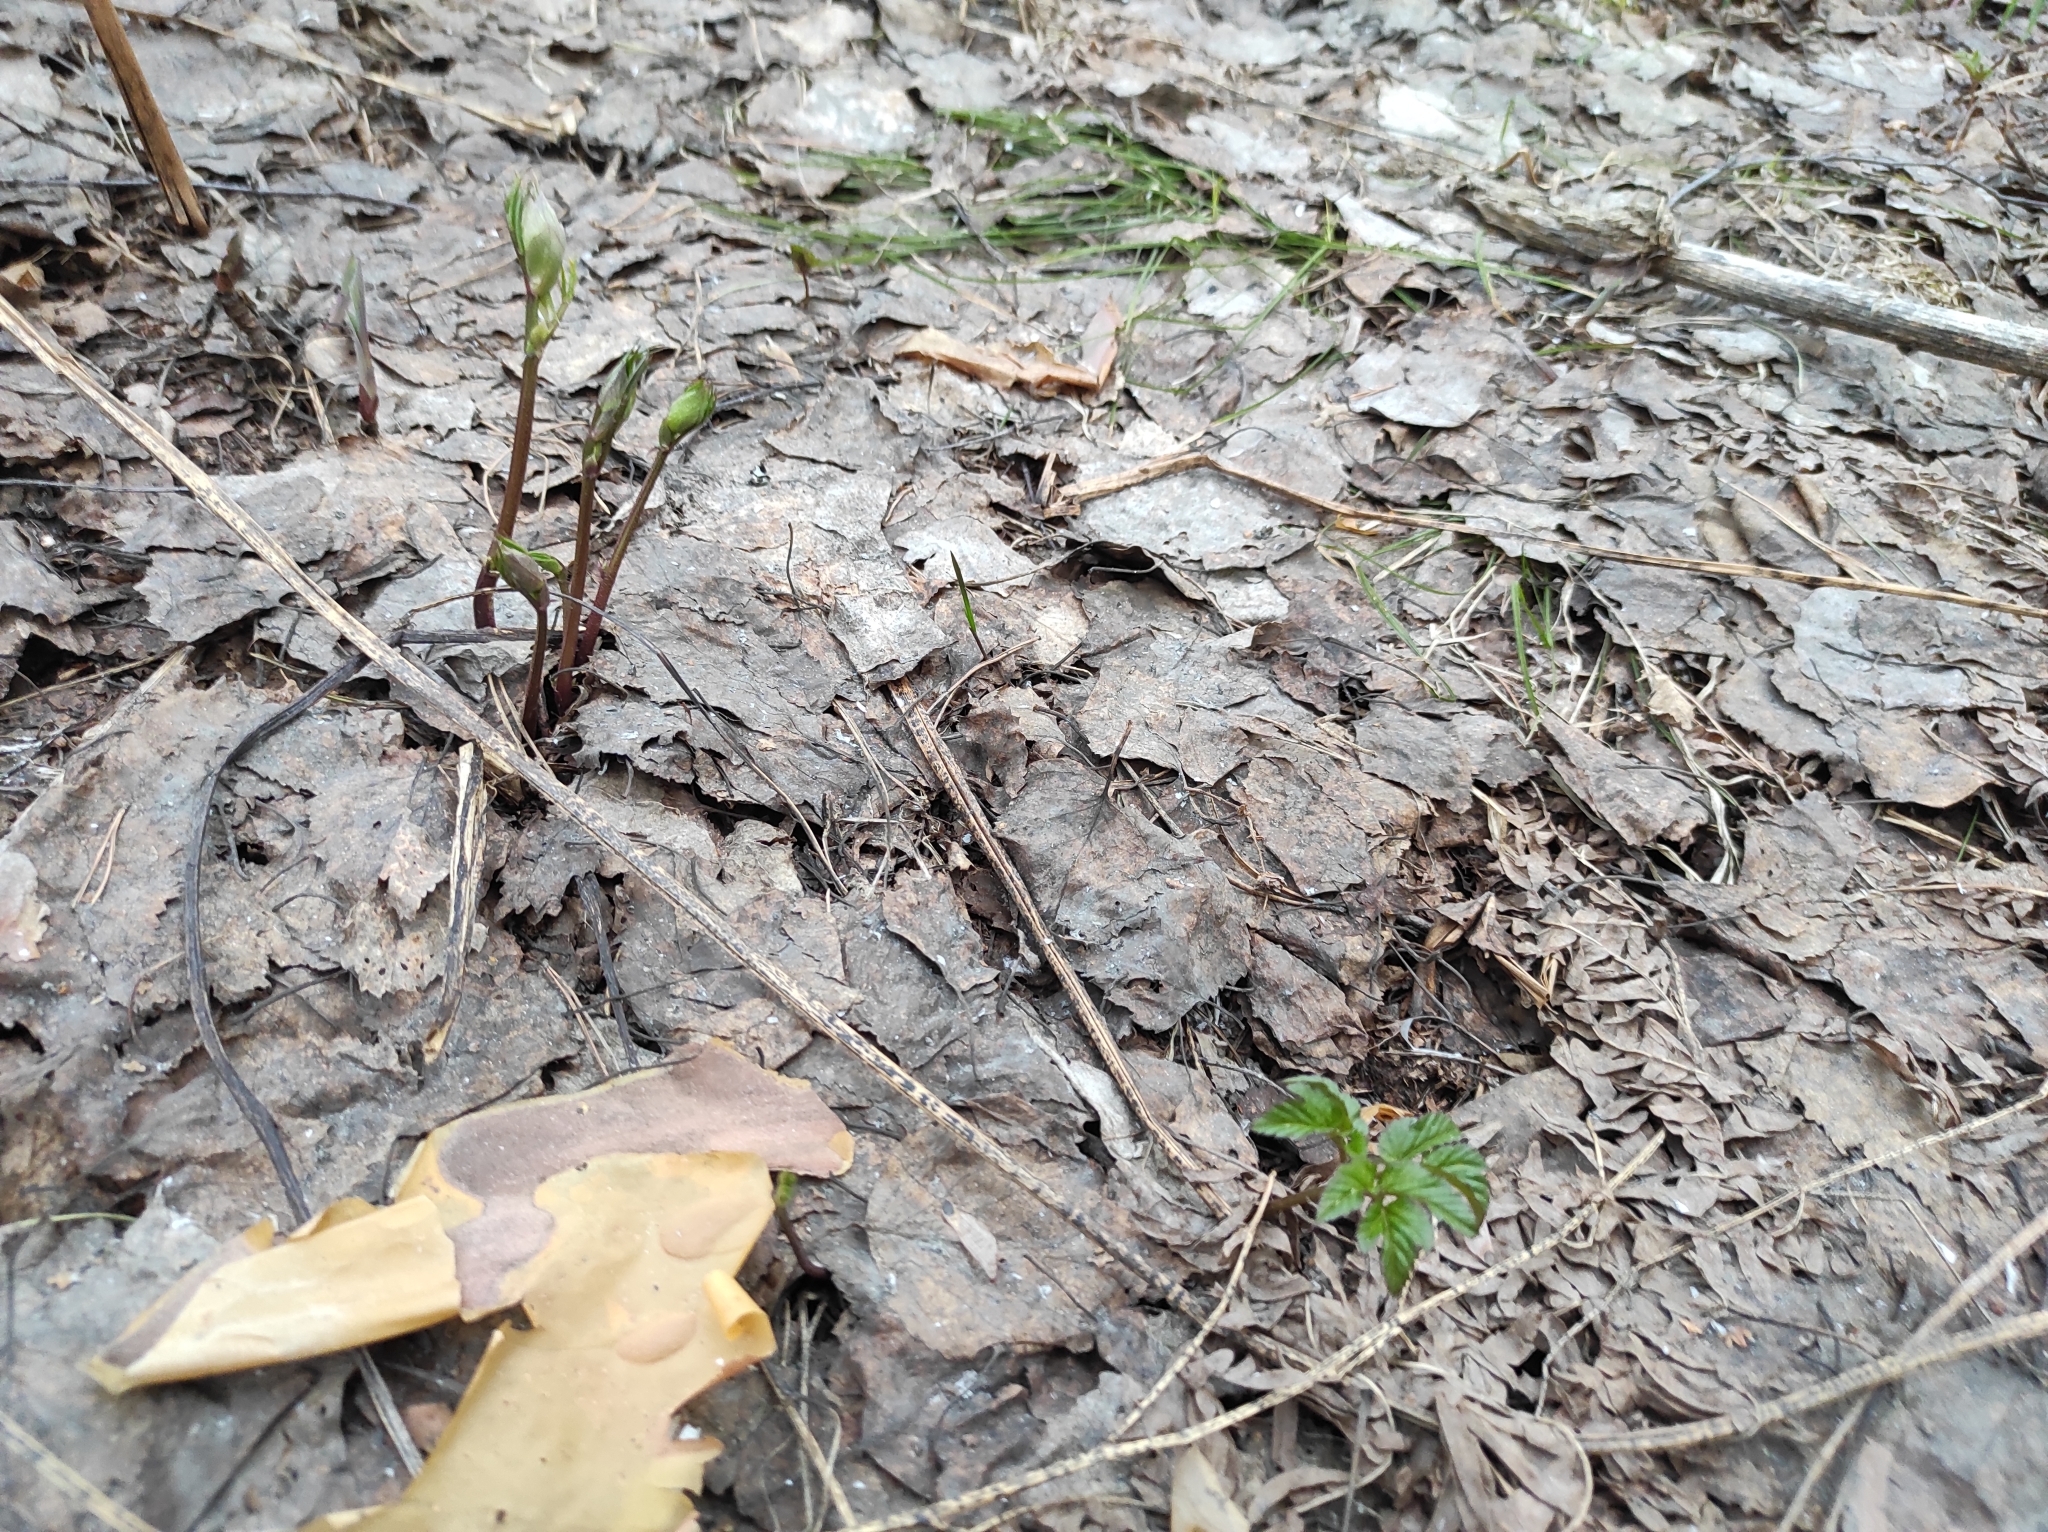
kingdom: Plantae
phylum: Tracheophyta
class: Magnoliopsida
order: Fabales
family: Fabaceae
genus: Lathyrus
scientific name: Lathyrus vernus
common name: Spring pea
